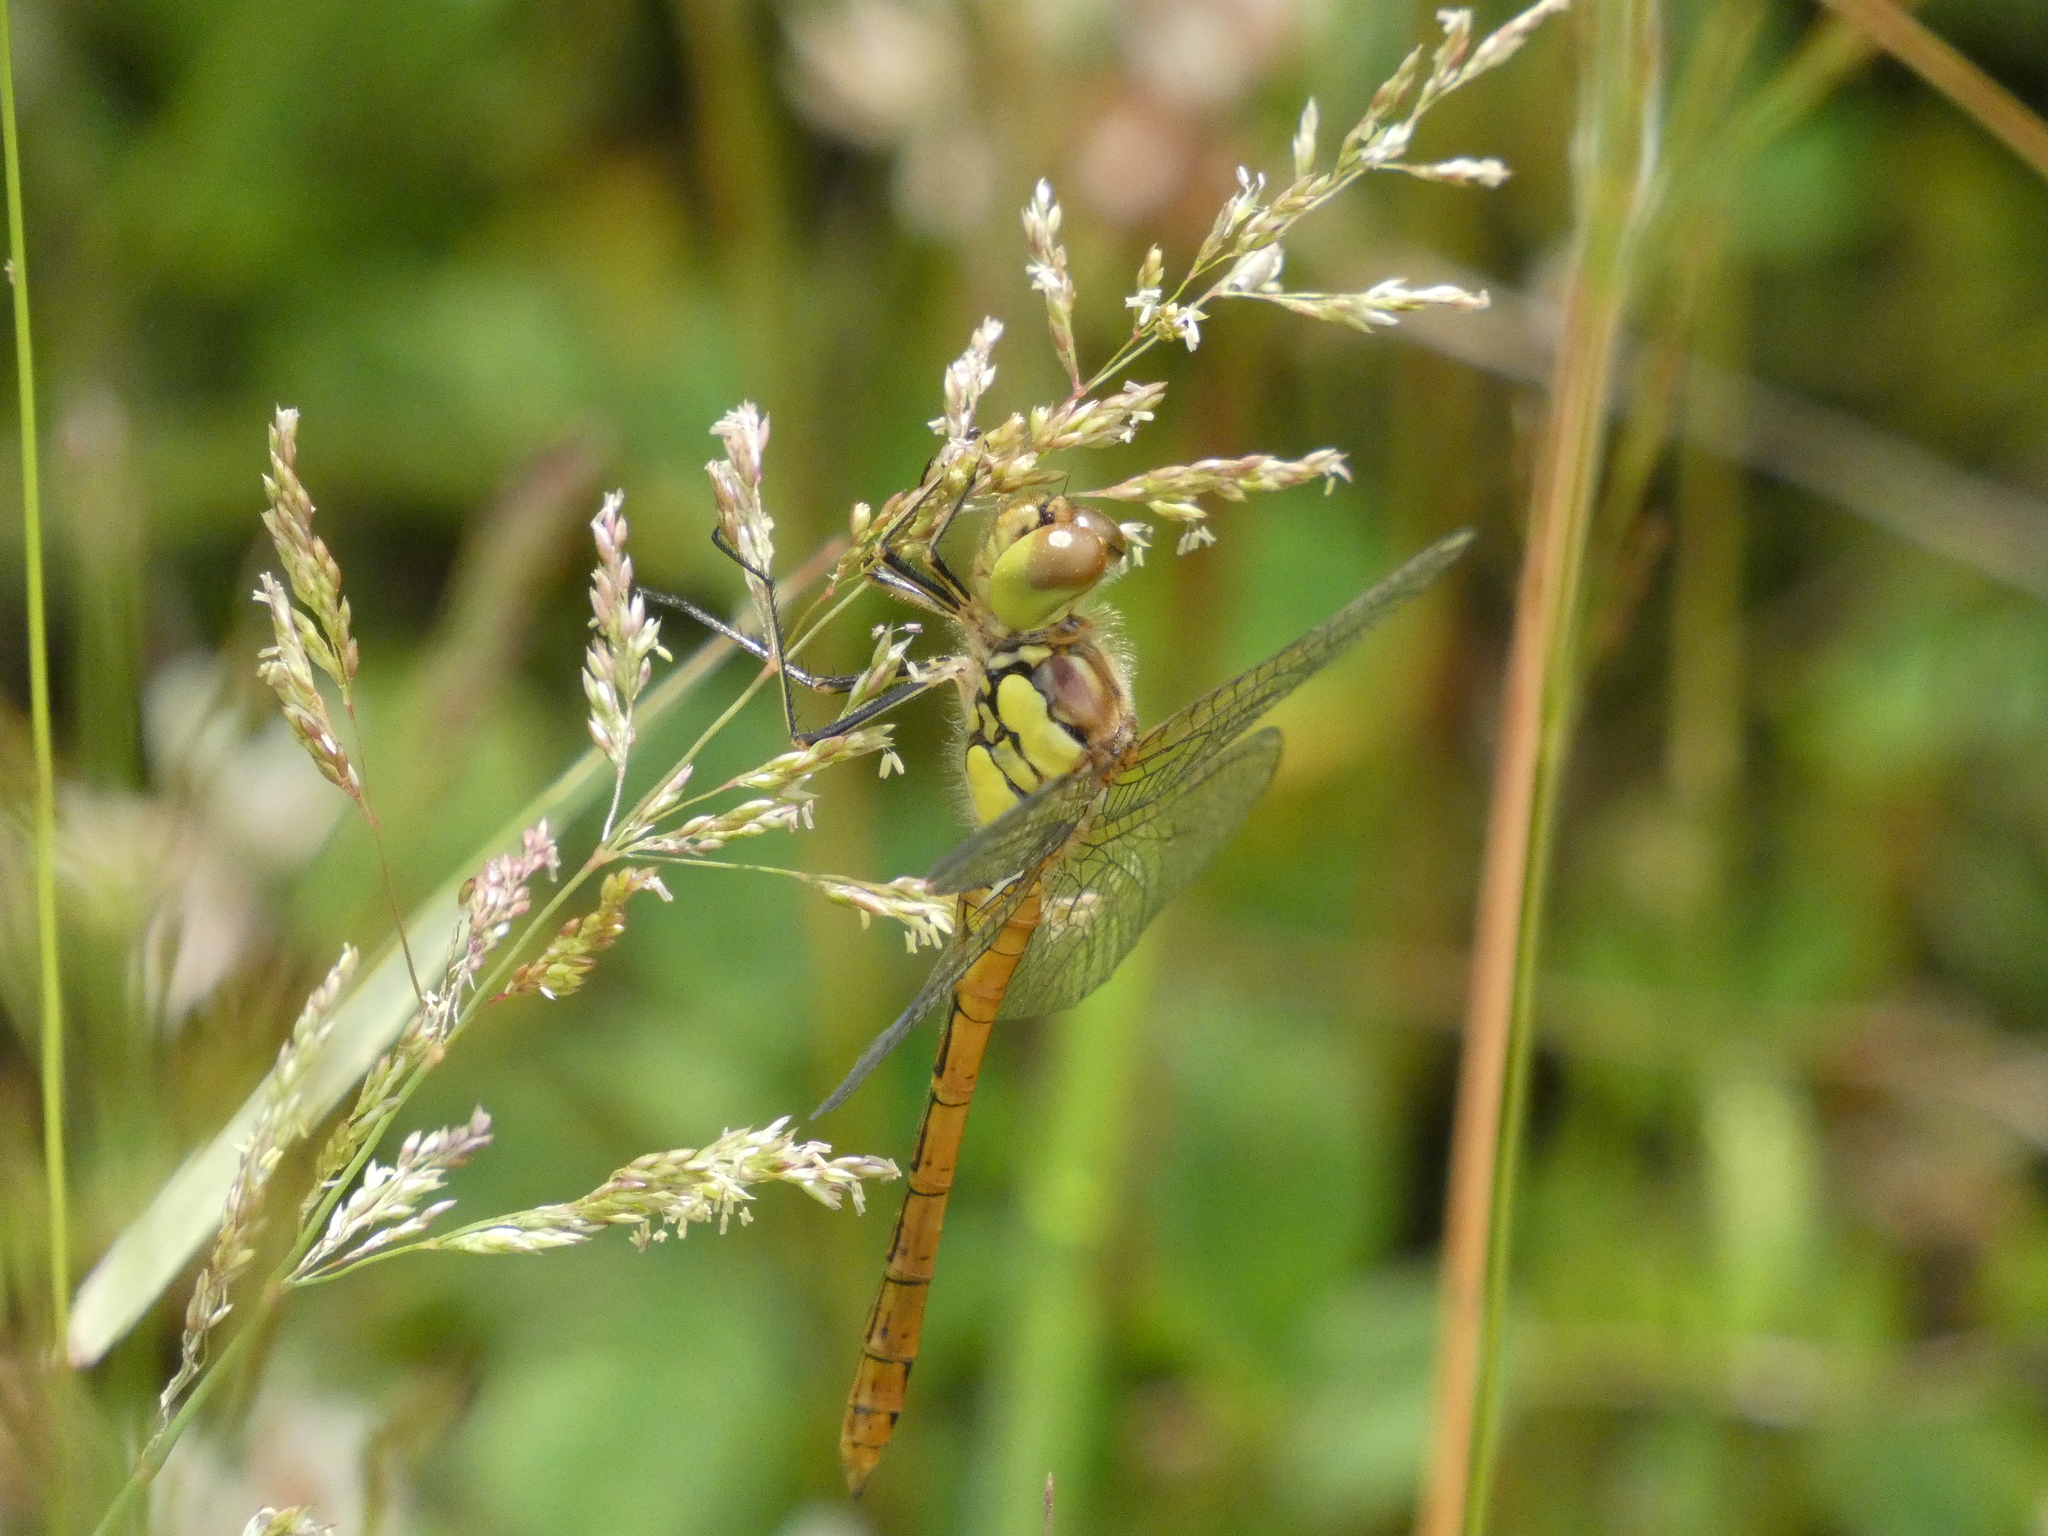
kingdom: Animalia
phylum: Arthropoda
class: Insecta
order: Odonata
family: Libellulidae
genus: Sympetrum
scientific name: Sympetrum striolatum
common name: Common darter
